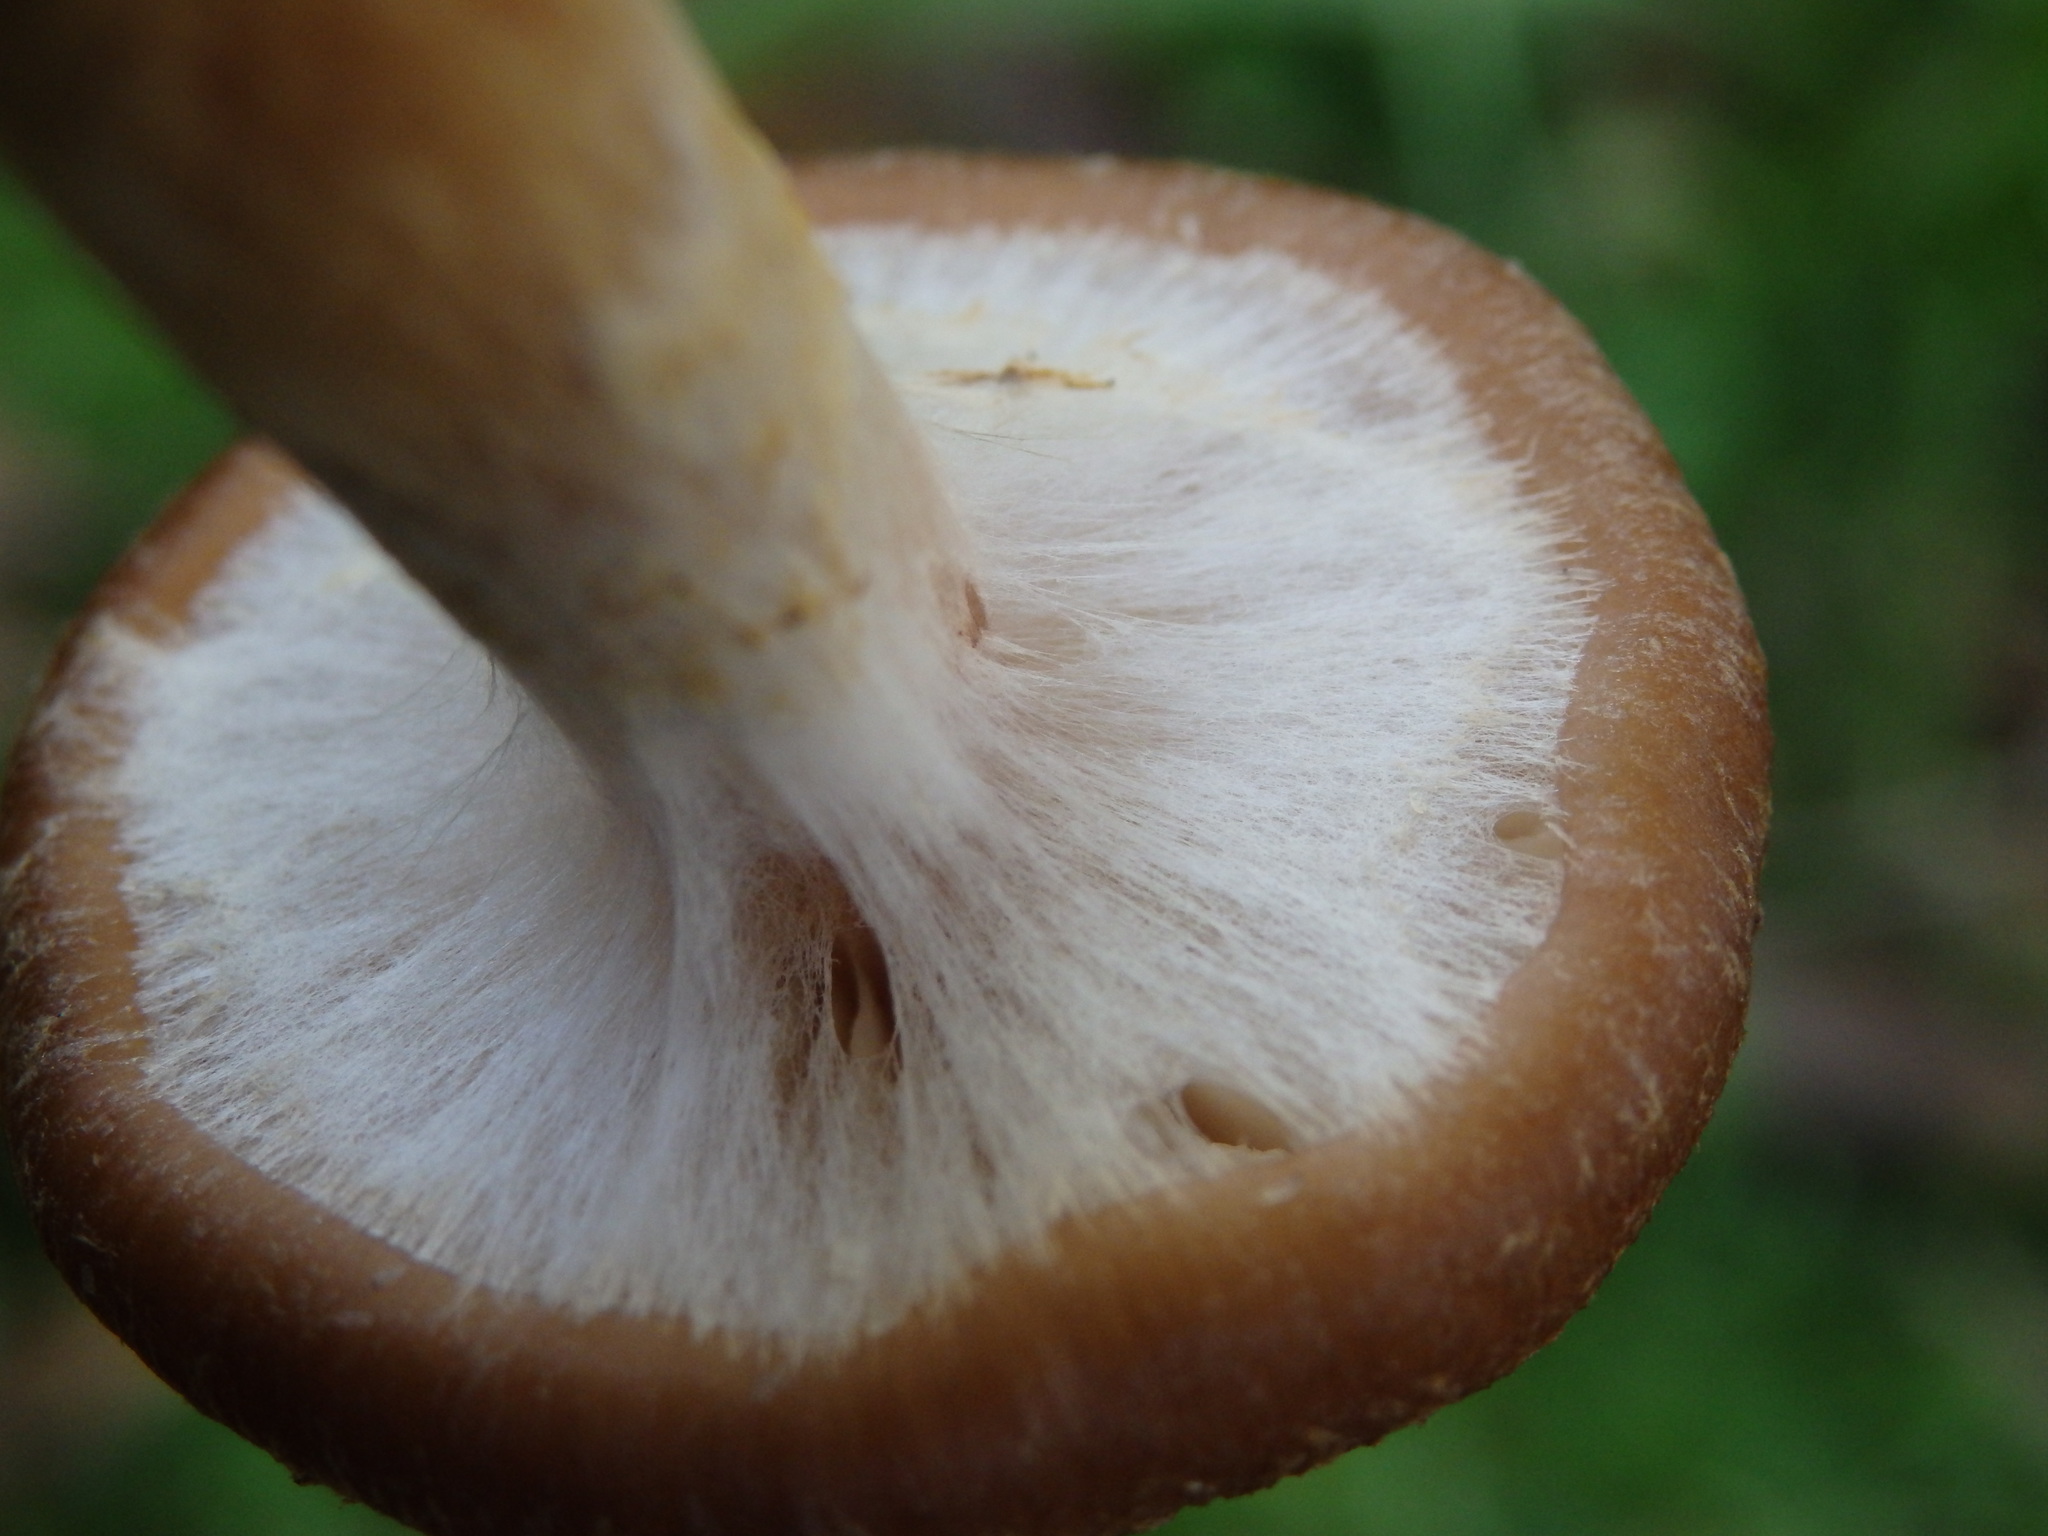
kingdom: Fungi
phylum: Basidiomycota
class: Agaricomycetes
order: Agaricales
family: Physalacriaceae
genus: Armillaria
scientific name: Armillaria gallica
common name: Bulbous honey fungus
